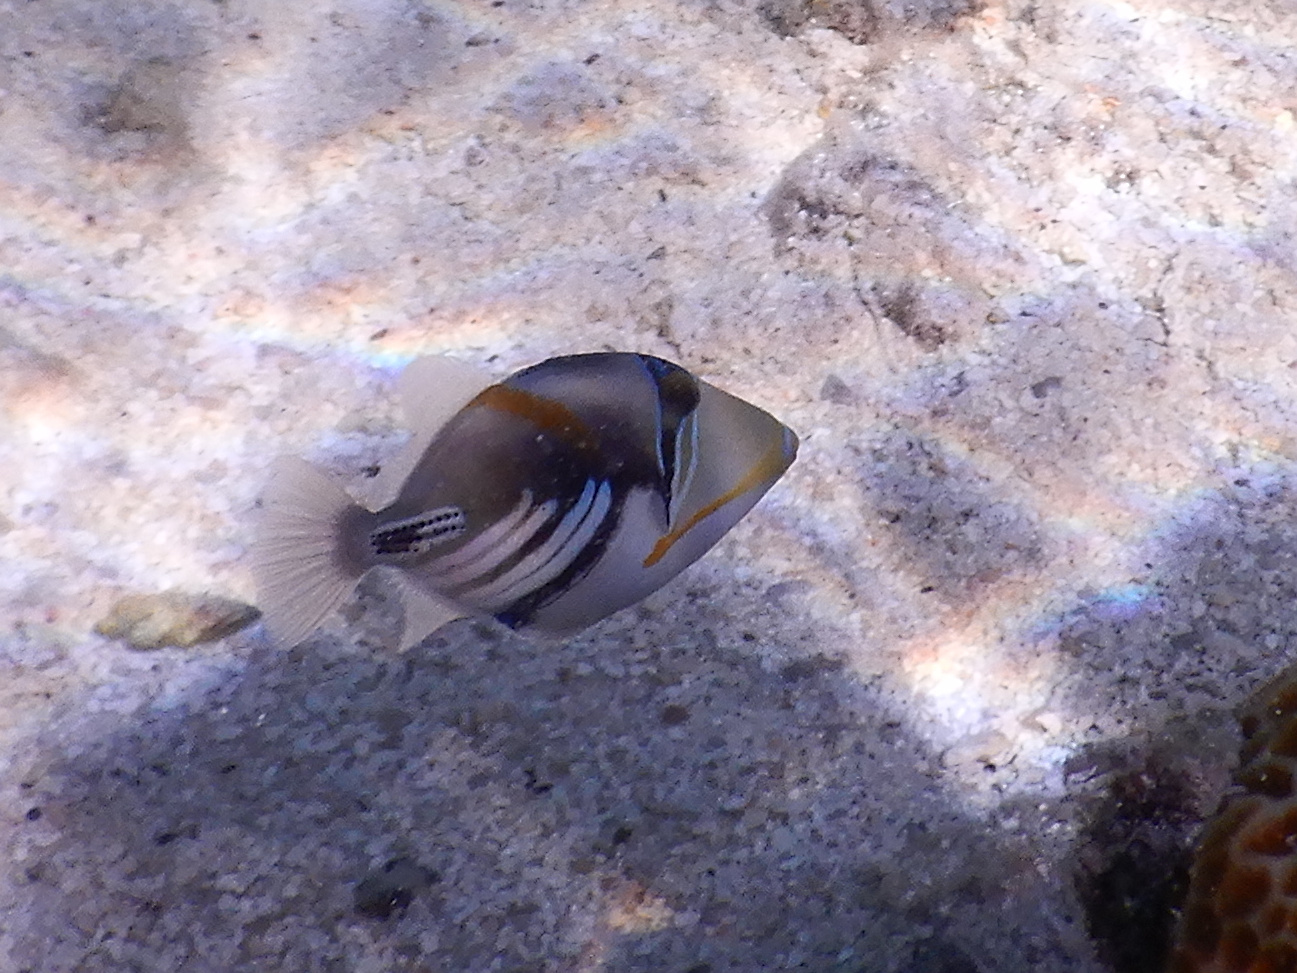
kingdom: Animalia
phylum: Chordata
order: Tetraodontiformes
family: Balistidae
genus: Rhinecanthus
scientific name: Rhinecanthus aculeatus
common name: White-banded triggerfish
